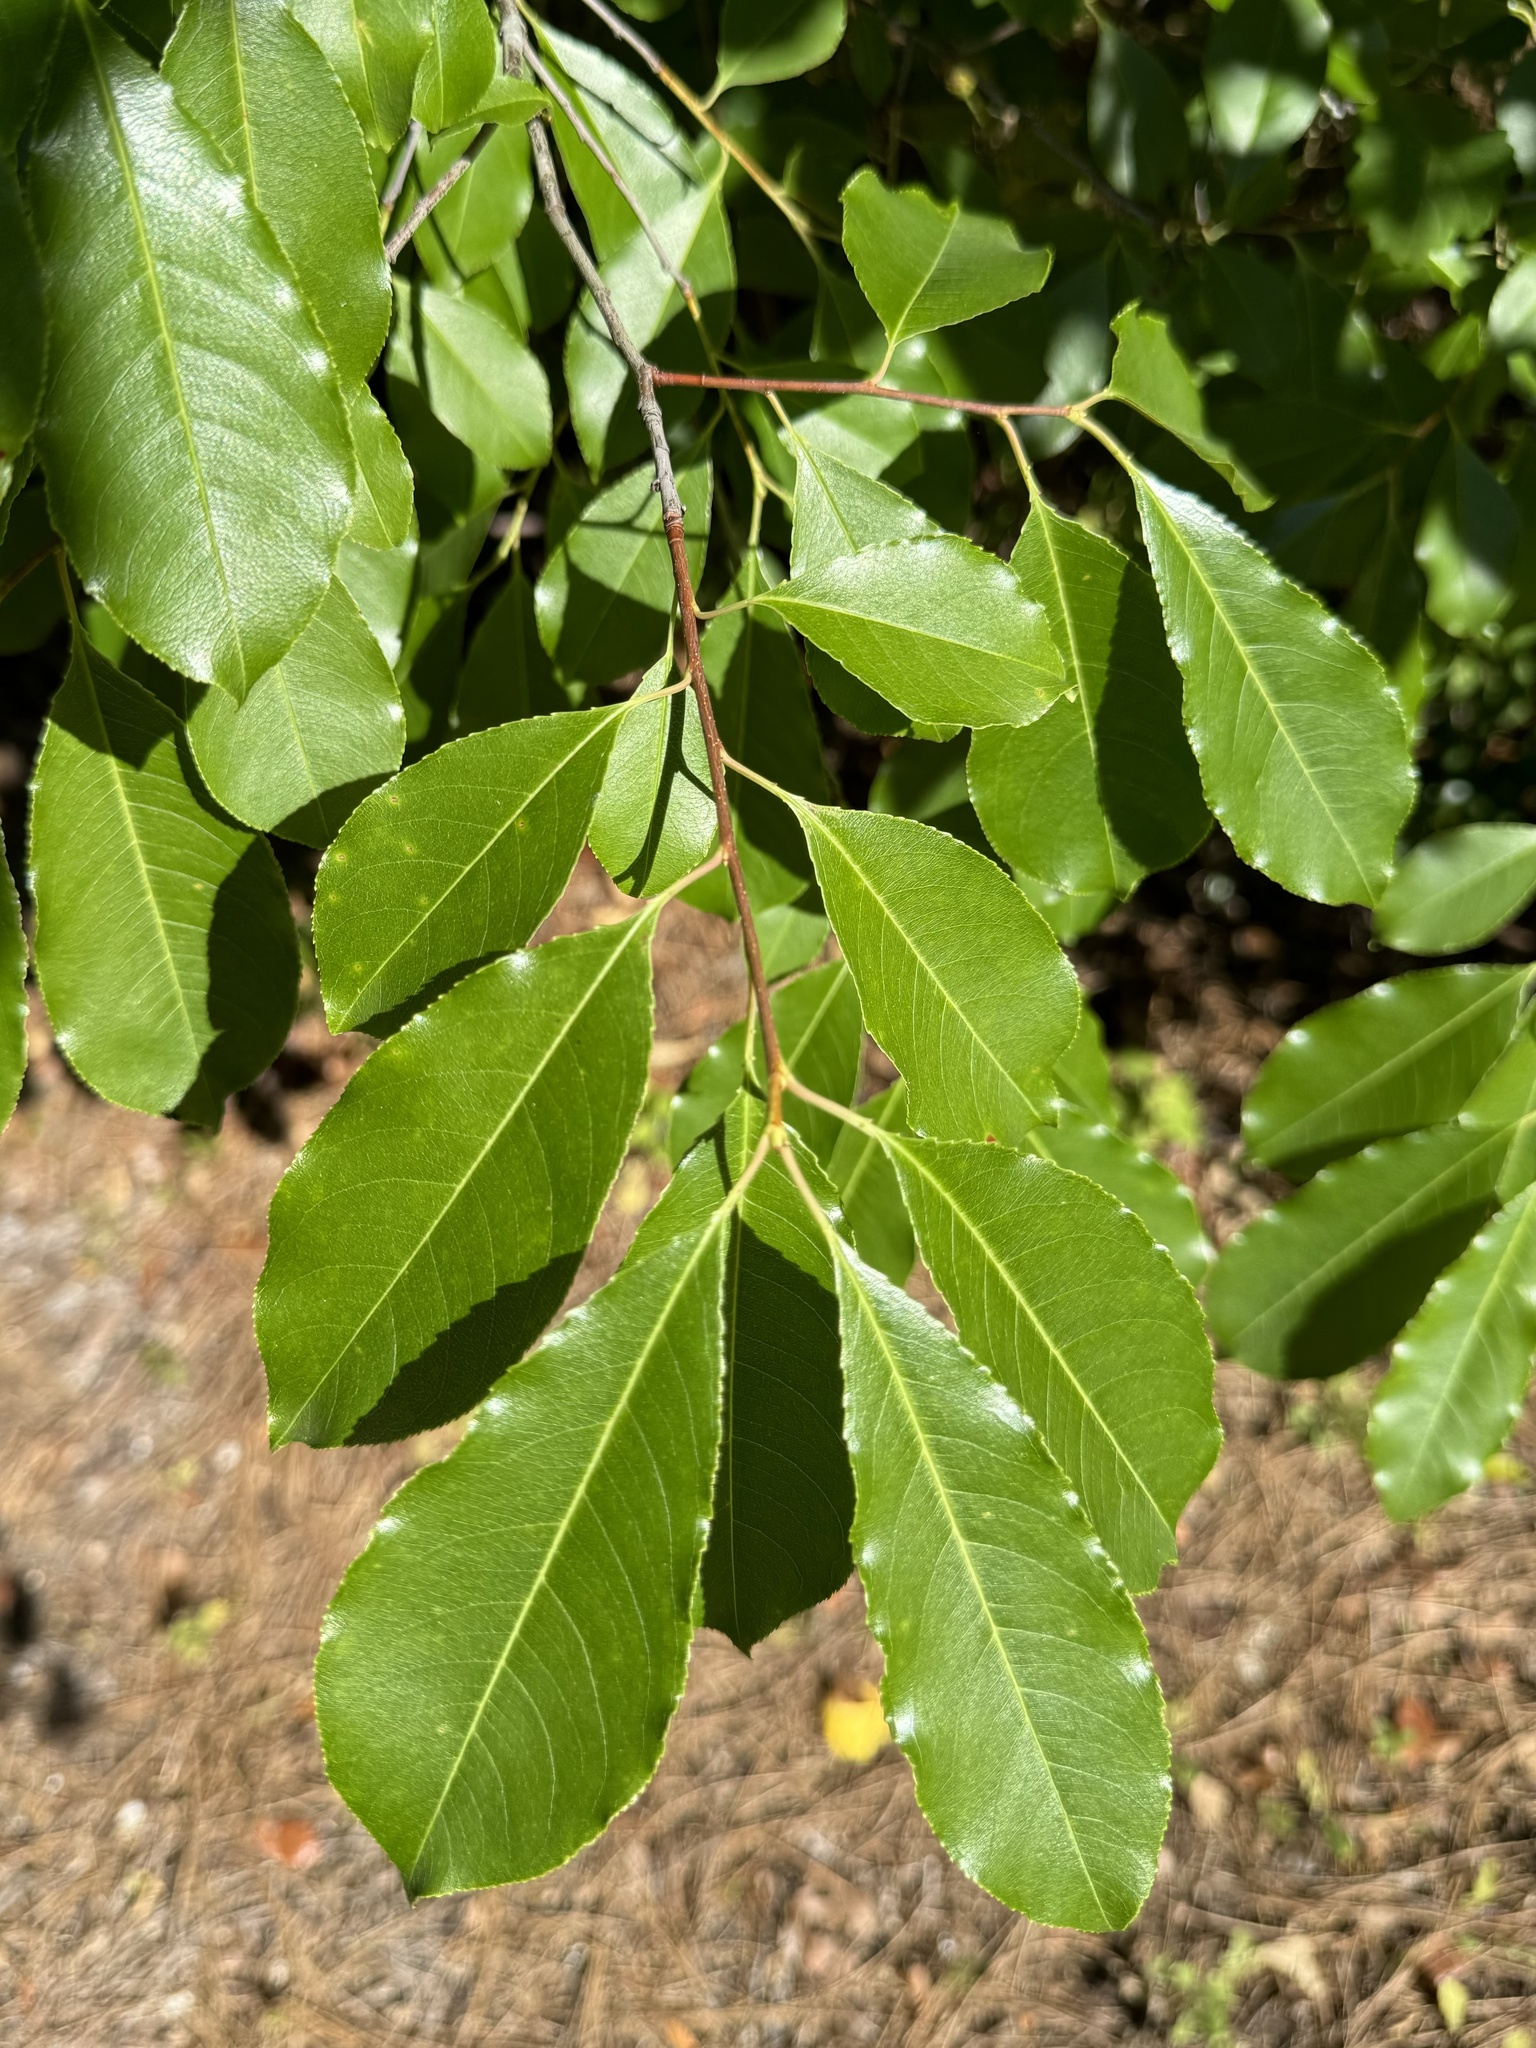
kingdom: Plantae
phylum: Tracheophyta
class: Magnoliopsida
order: Rosales
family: Rosaceae
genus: Prunus
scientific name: Prunus serotina
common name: Black cherry
